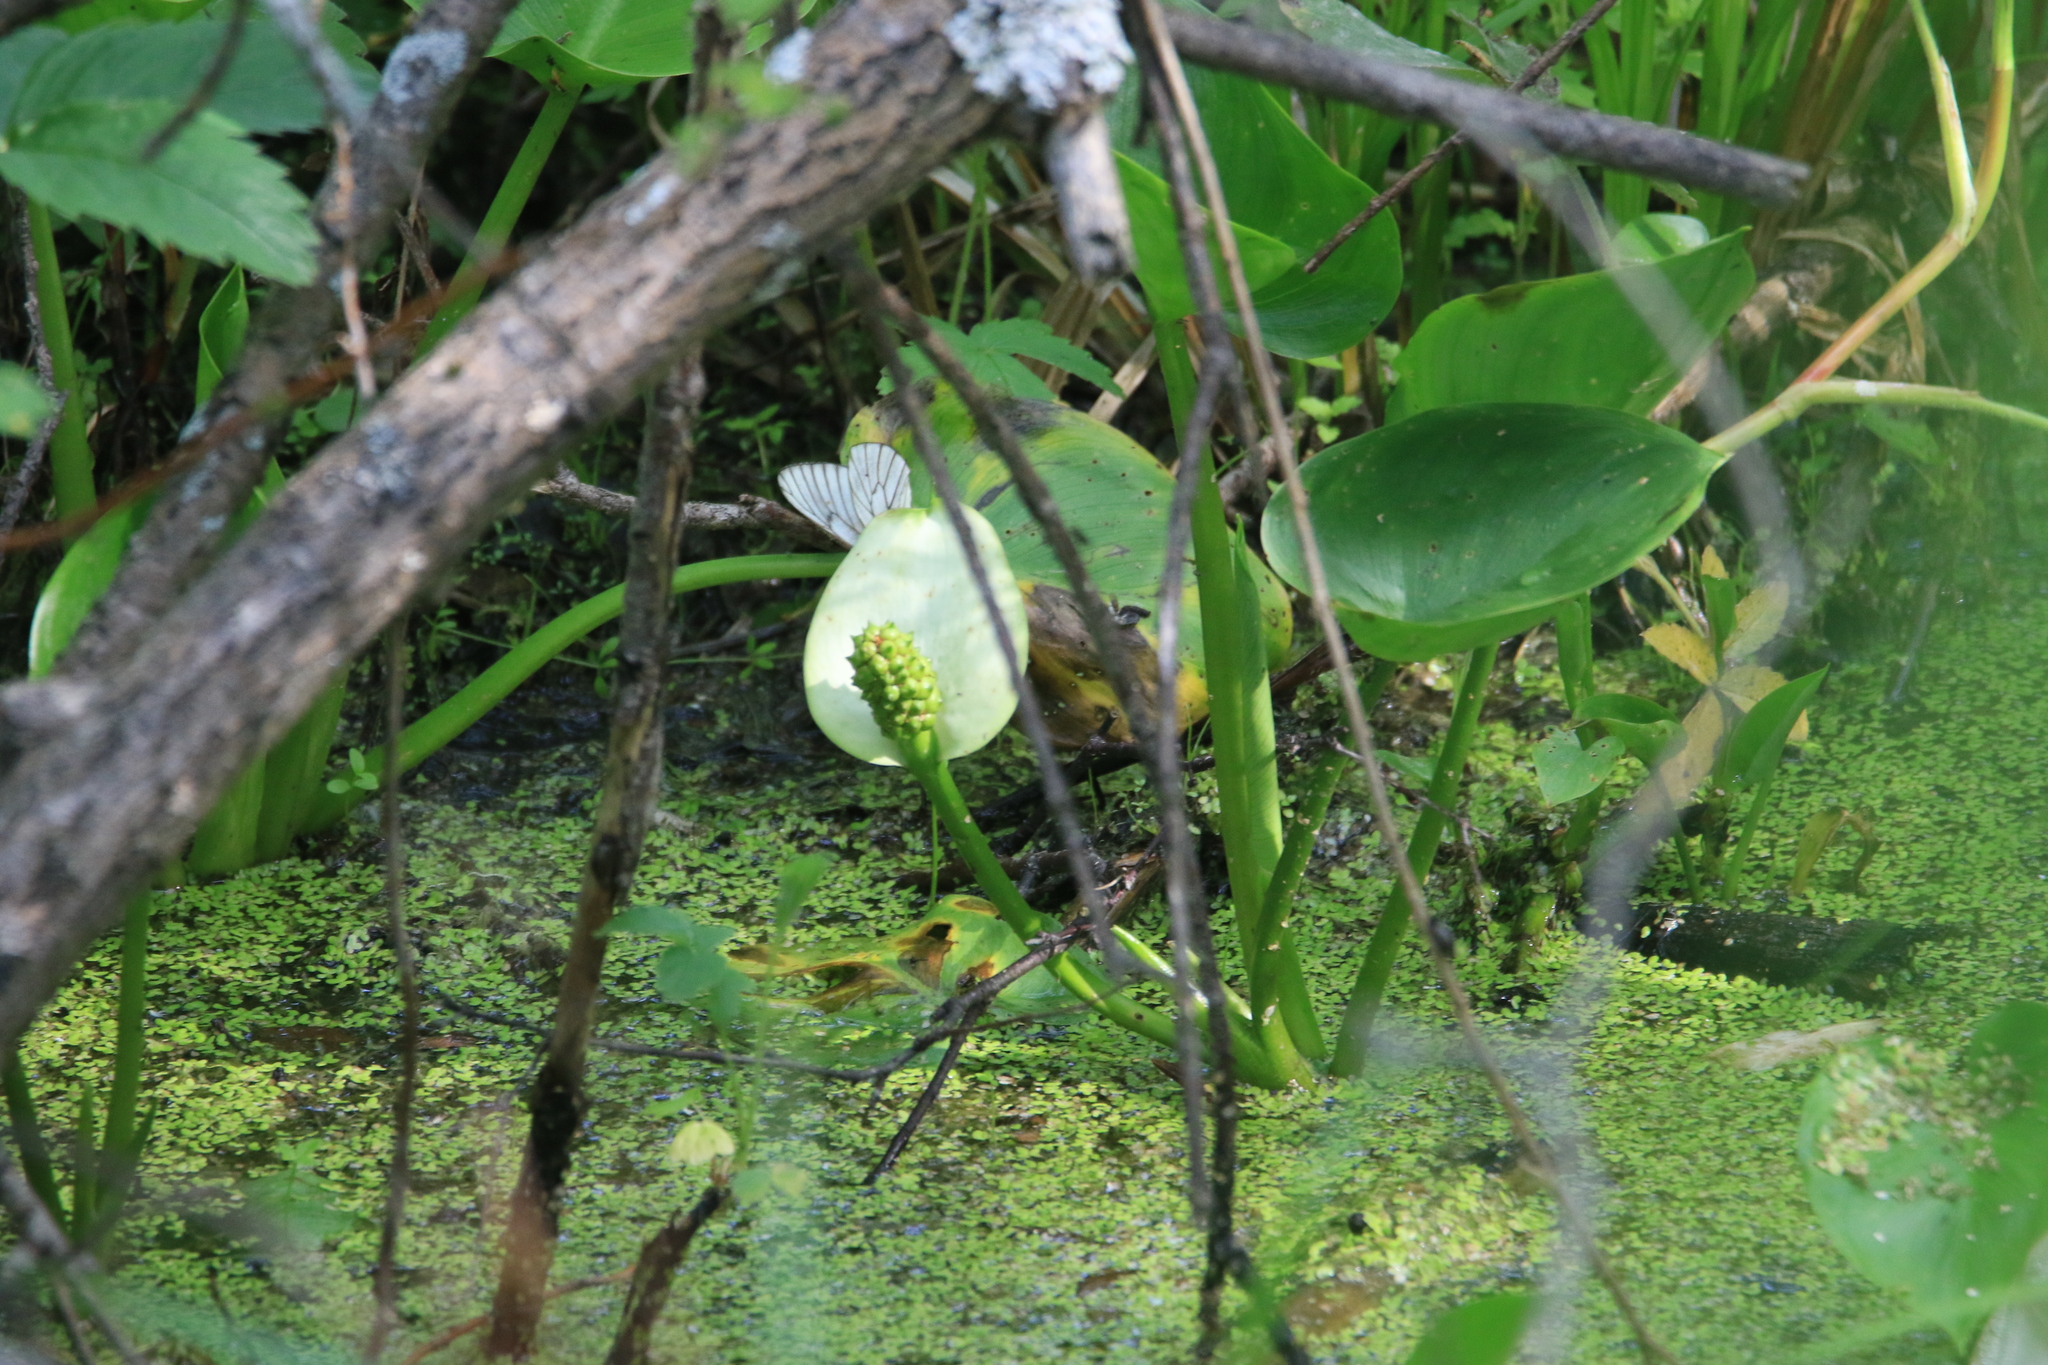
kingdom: Plantae
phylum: Tracheophyta
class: Liliopsida
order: Alismatales
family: Araceae
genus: Calla
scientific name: Calla palustris
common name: Bog arum
